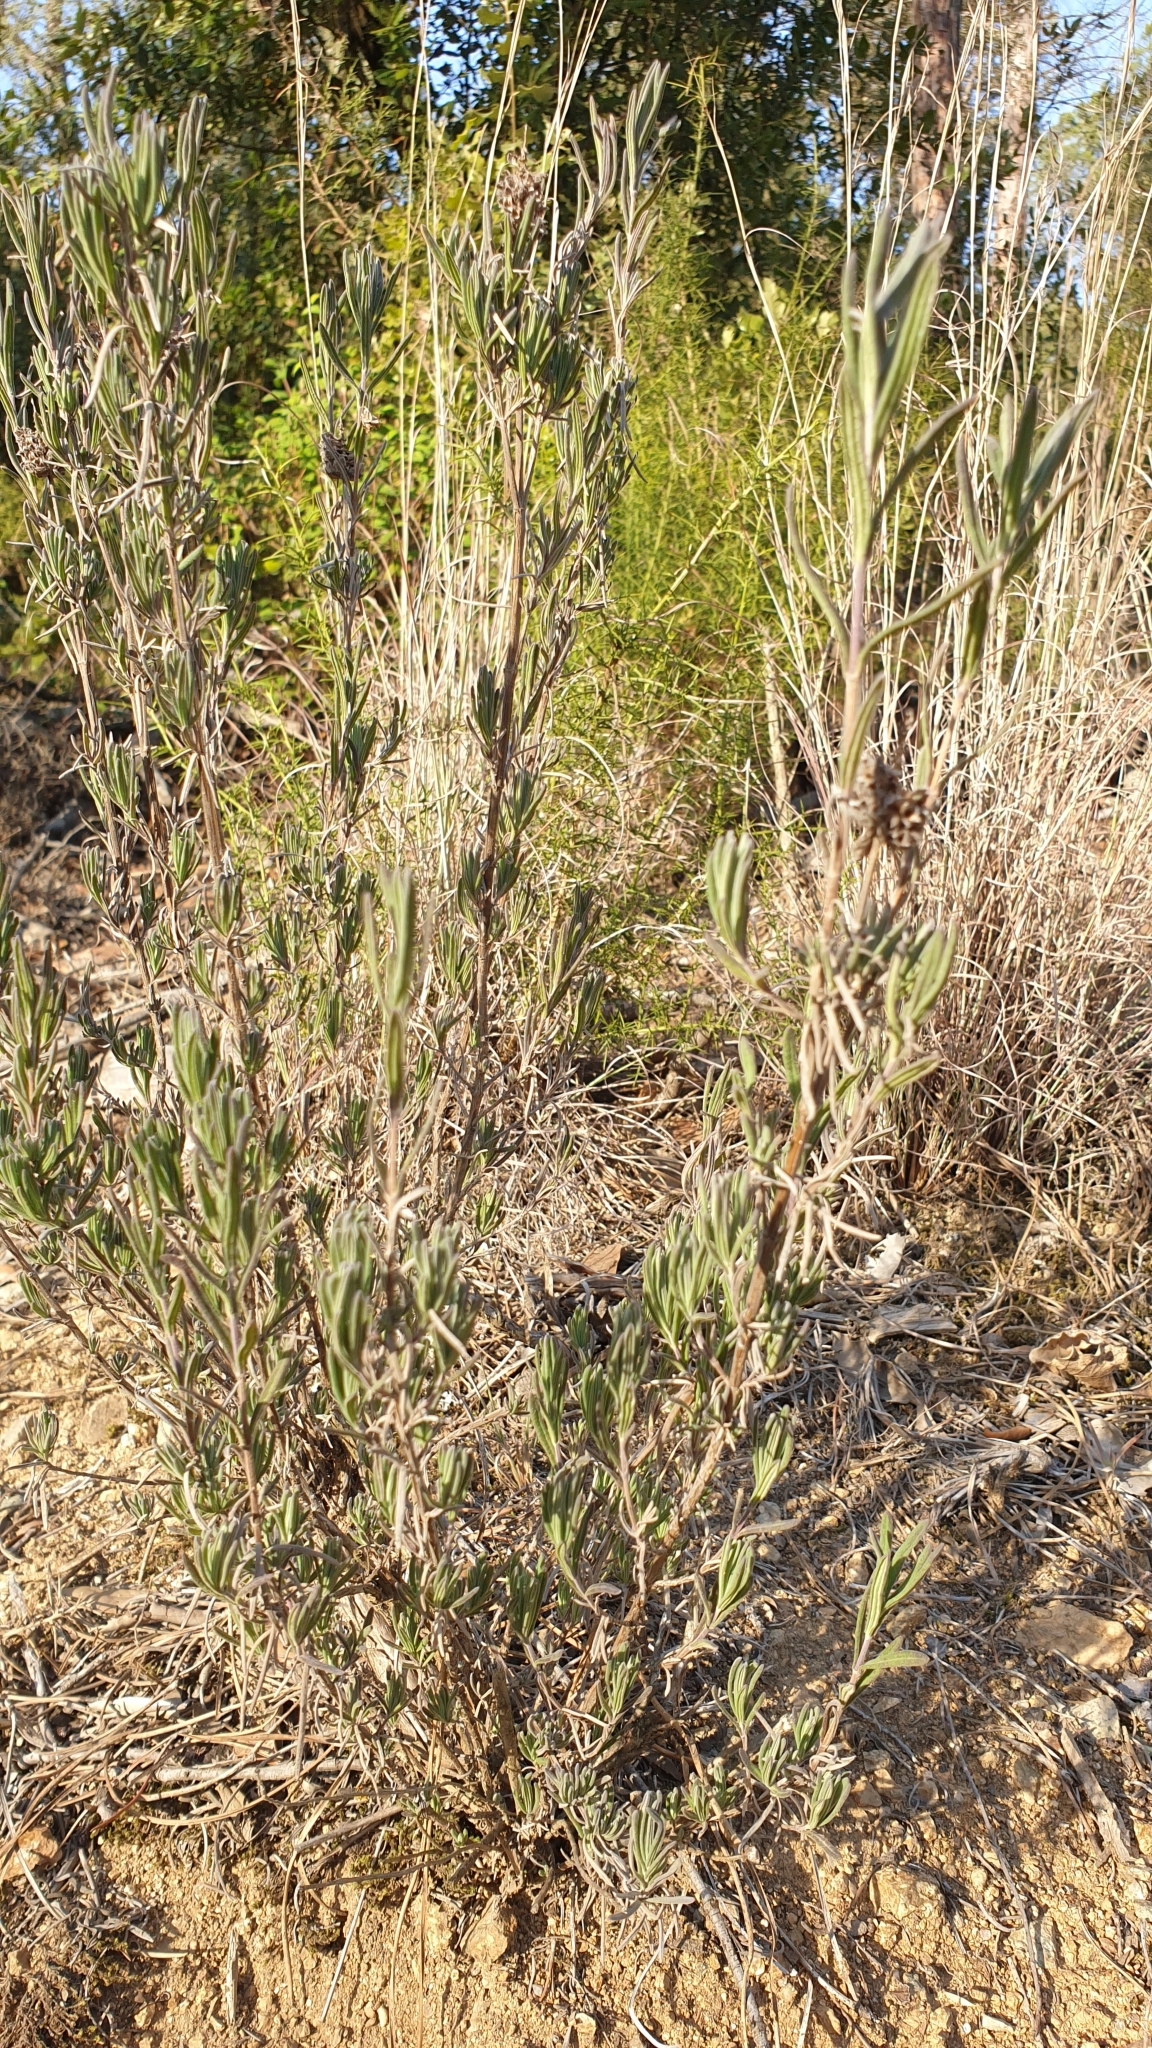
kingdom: Plantae
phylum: Tracheophyta
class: Magnoliopsida
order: Lamiales
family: Lamiaceae
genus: Lavandula
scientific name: Lavandula stoechas
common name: French lavender
